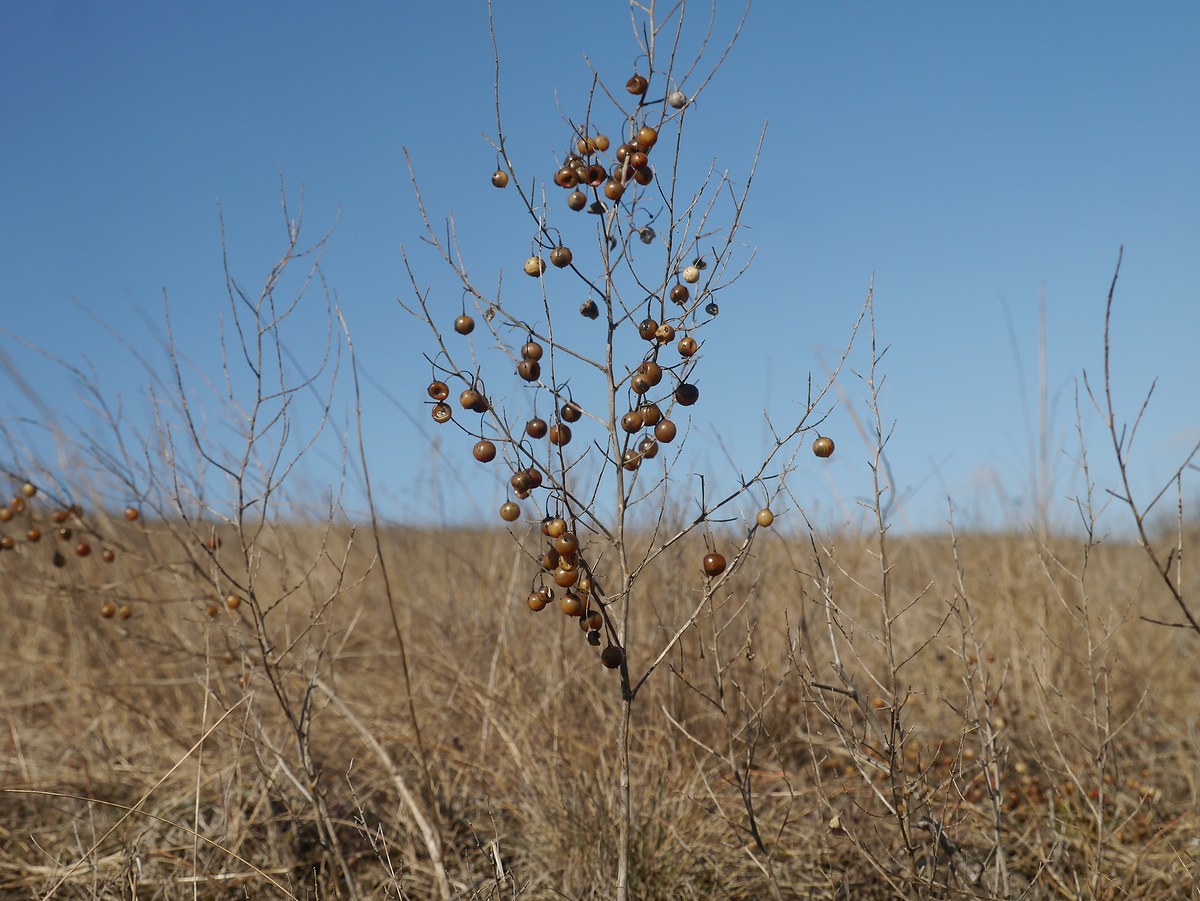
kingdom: Plantae
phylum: Tracheophyta
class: Liliopsida
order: Asparagales
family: Asparagaceae
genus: Asparagus
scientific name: Asparagus officinalis
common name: Garden asparagus
